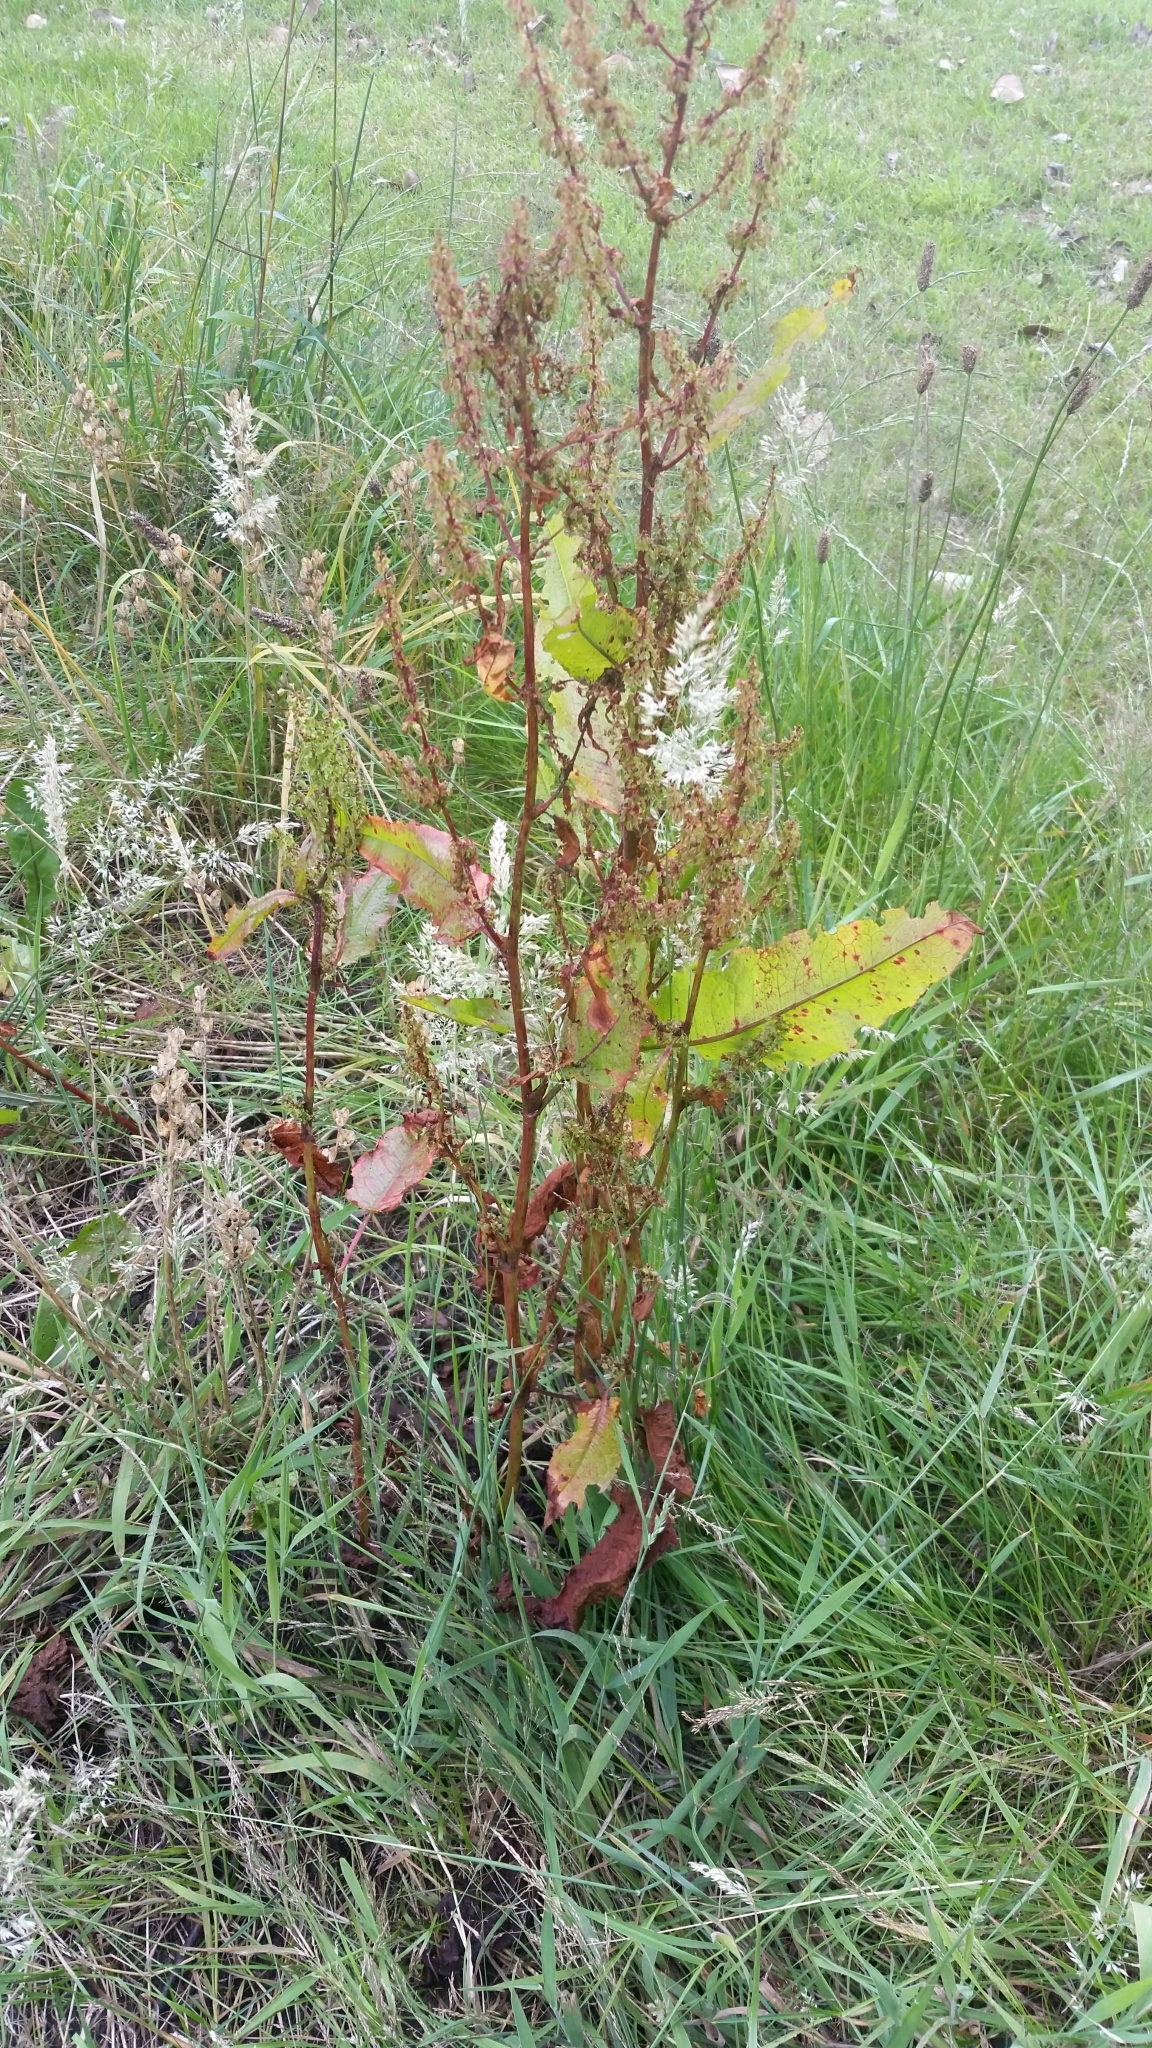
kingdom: Plantae
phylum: Tracheophyta
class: Magnoliopsida
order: Caryophyllales
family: Polygonaceae
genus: Rumex
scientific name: Rumex obtusifolius
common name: Bitter dock
